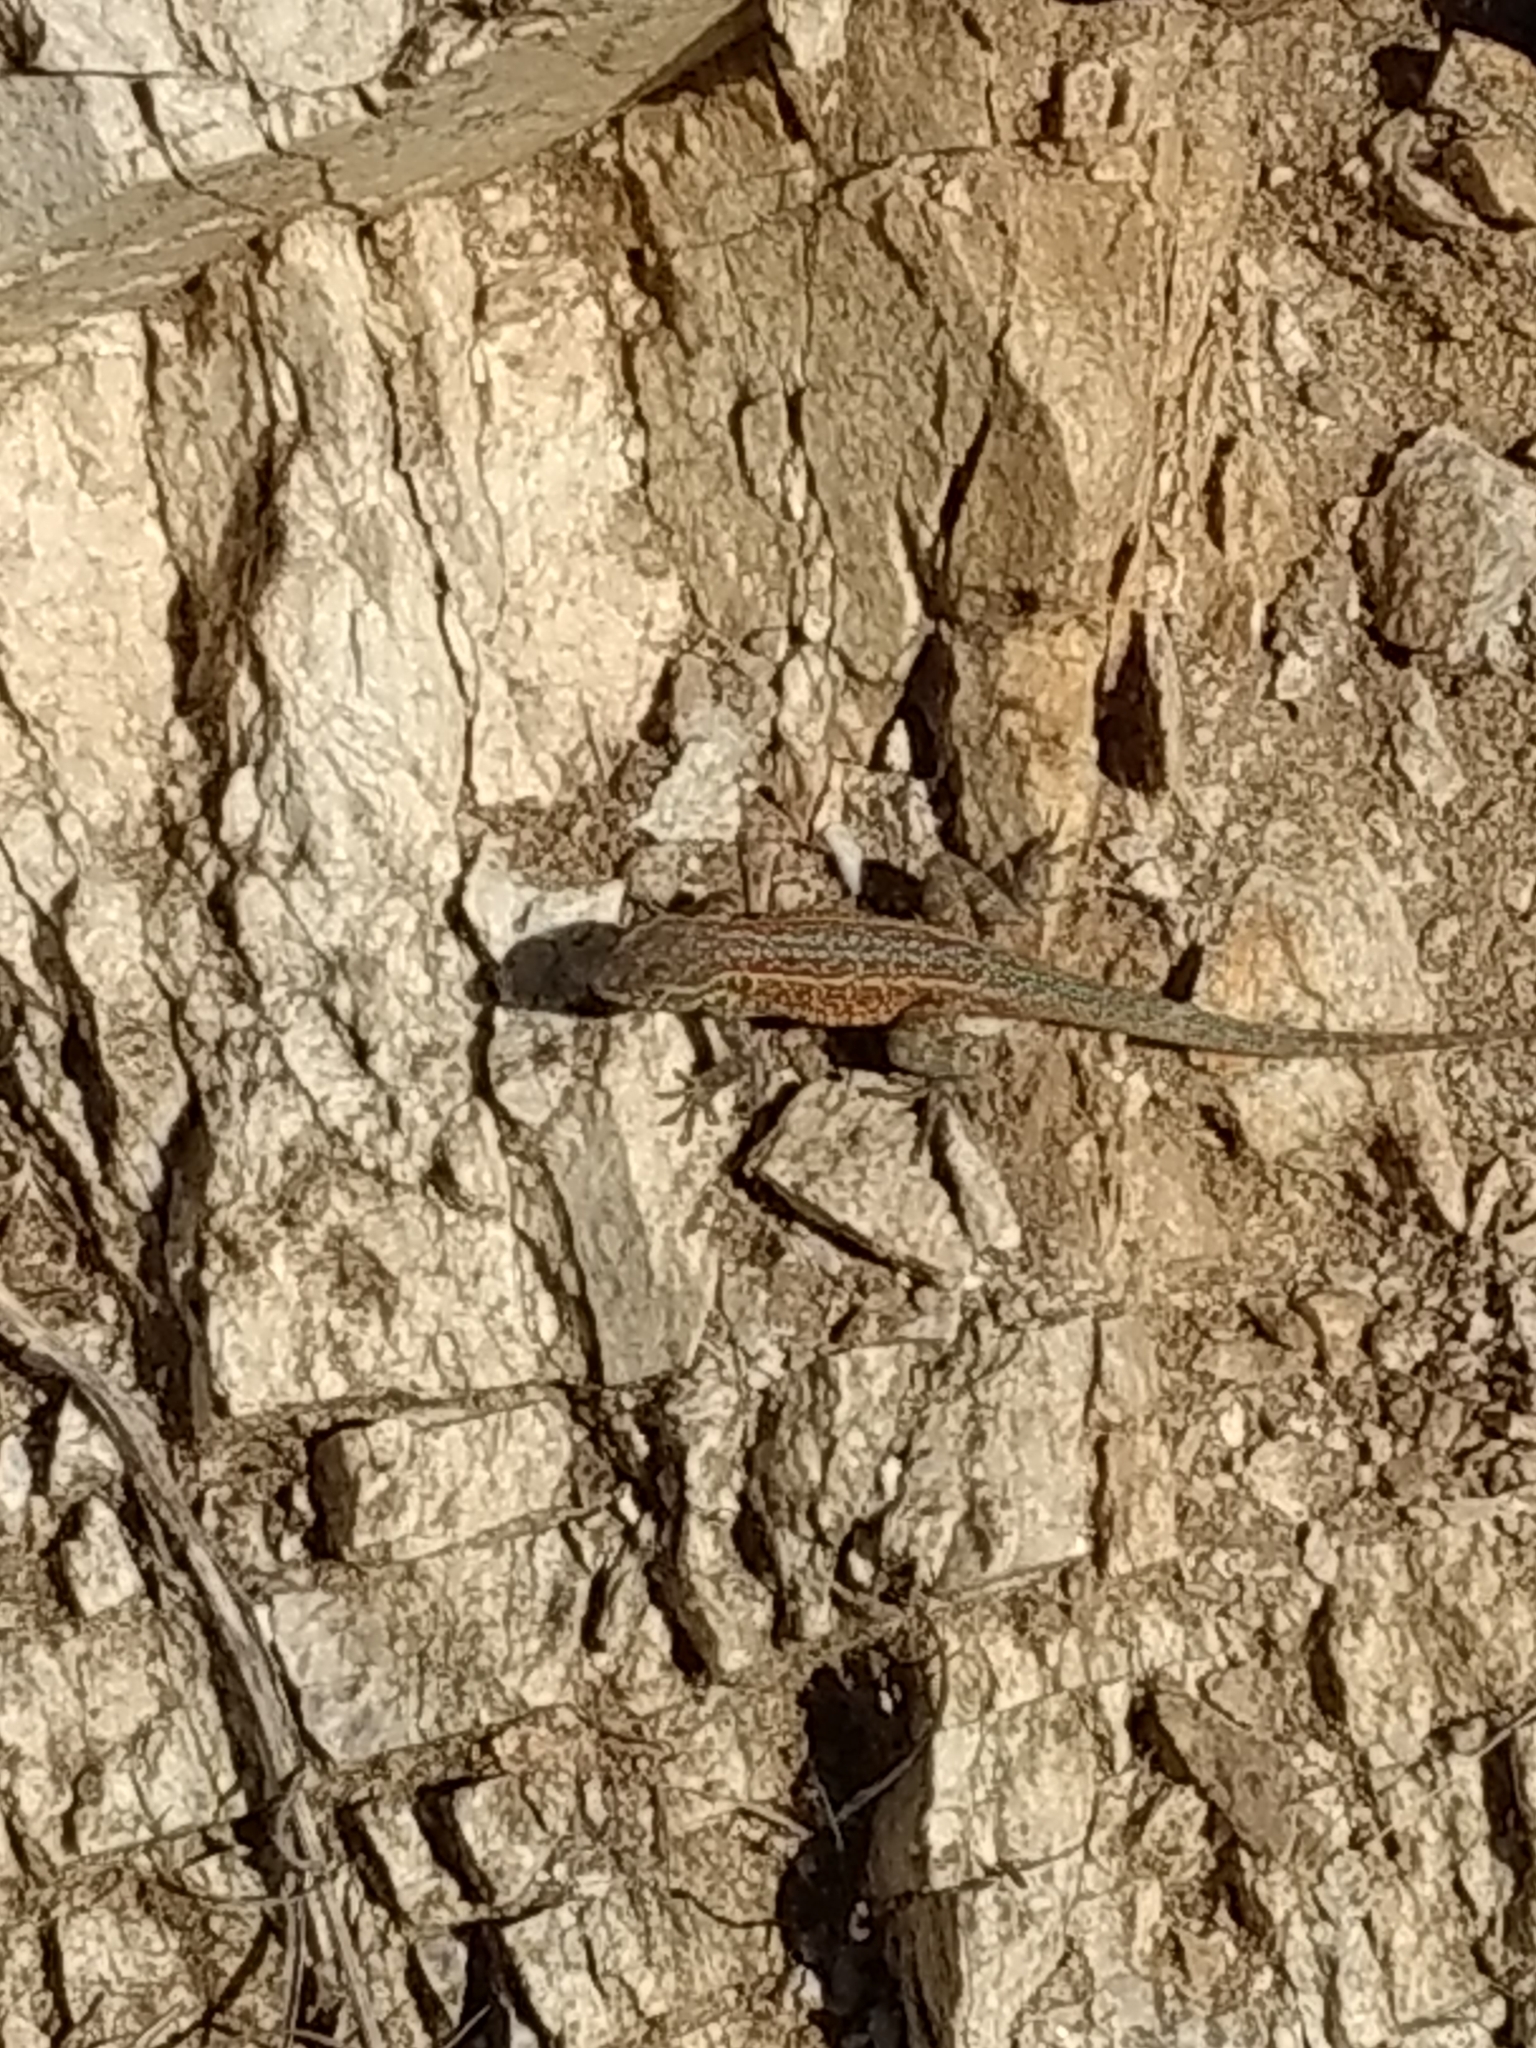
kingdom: Animalia
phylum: Chordata
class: Squamata
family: Phrynosomatidae
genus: Uta
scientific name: Uta stansburiana
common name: Side-blotched lizard
